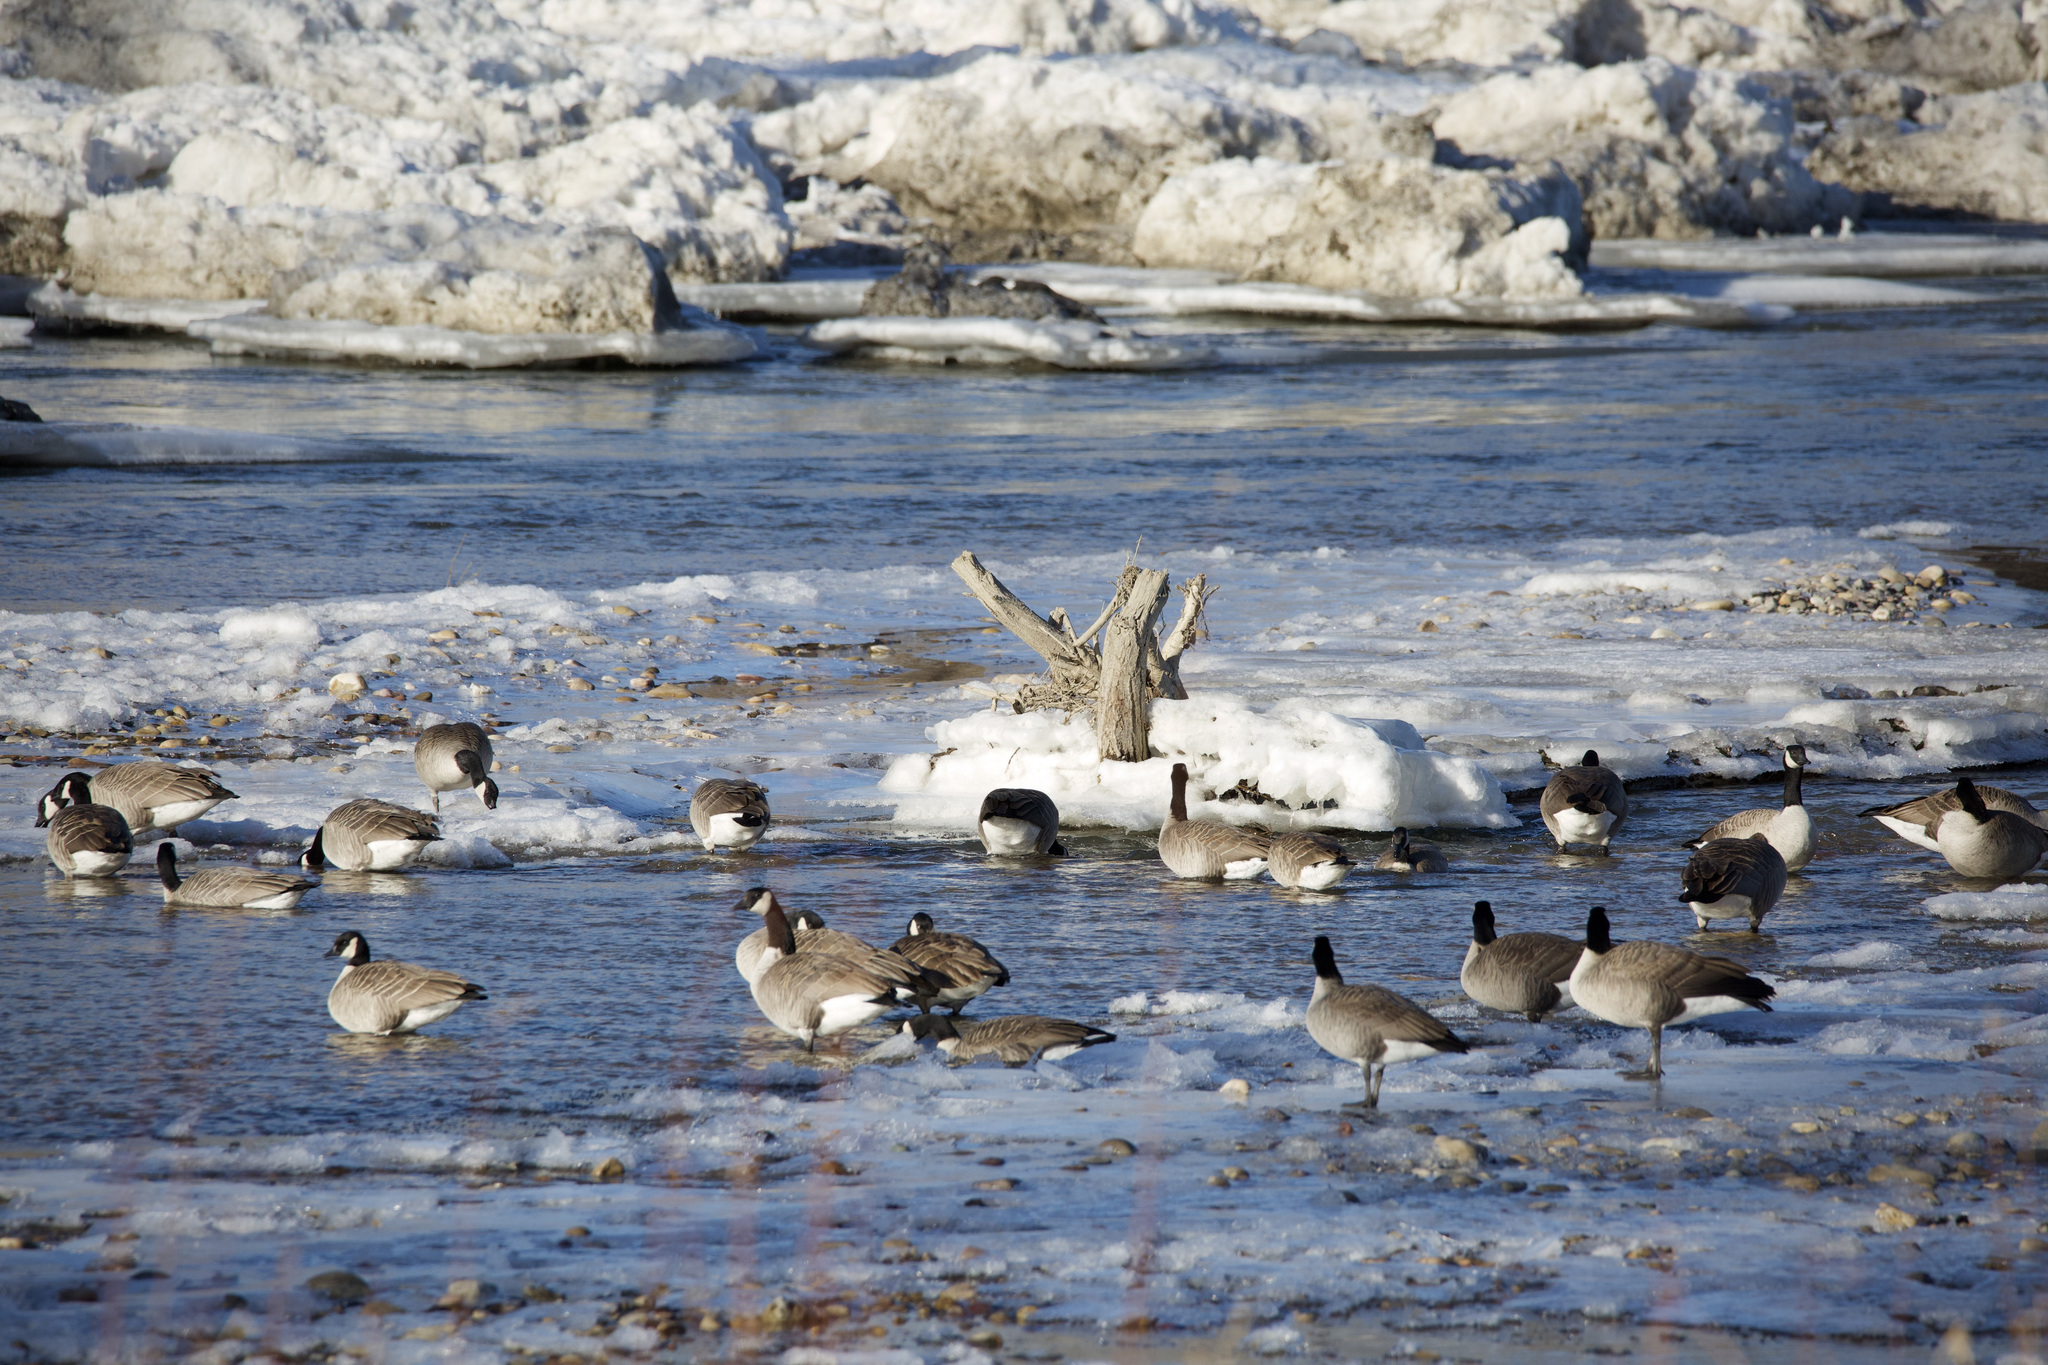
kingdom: Animalia
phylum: Chordata
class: Aves
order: Anseriformes
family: Anatidae
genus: Branta
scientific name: Branta canadensis
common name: Canada goose
